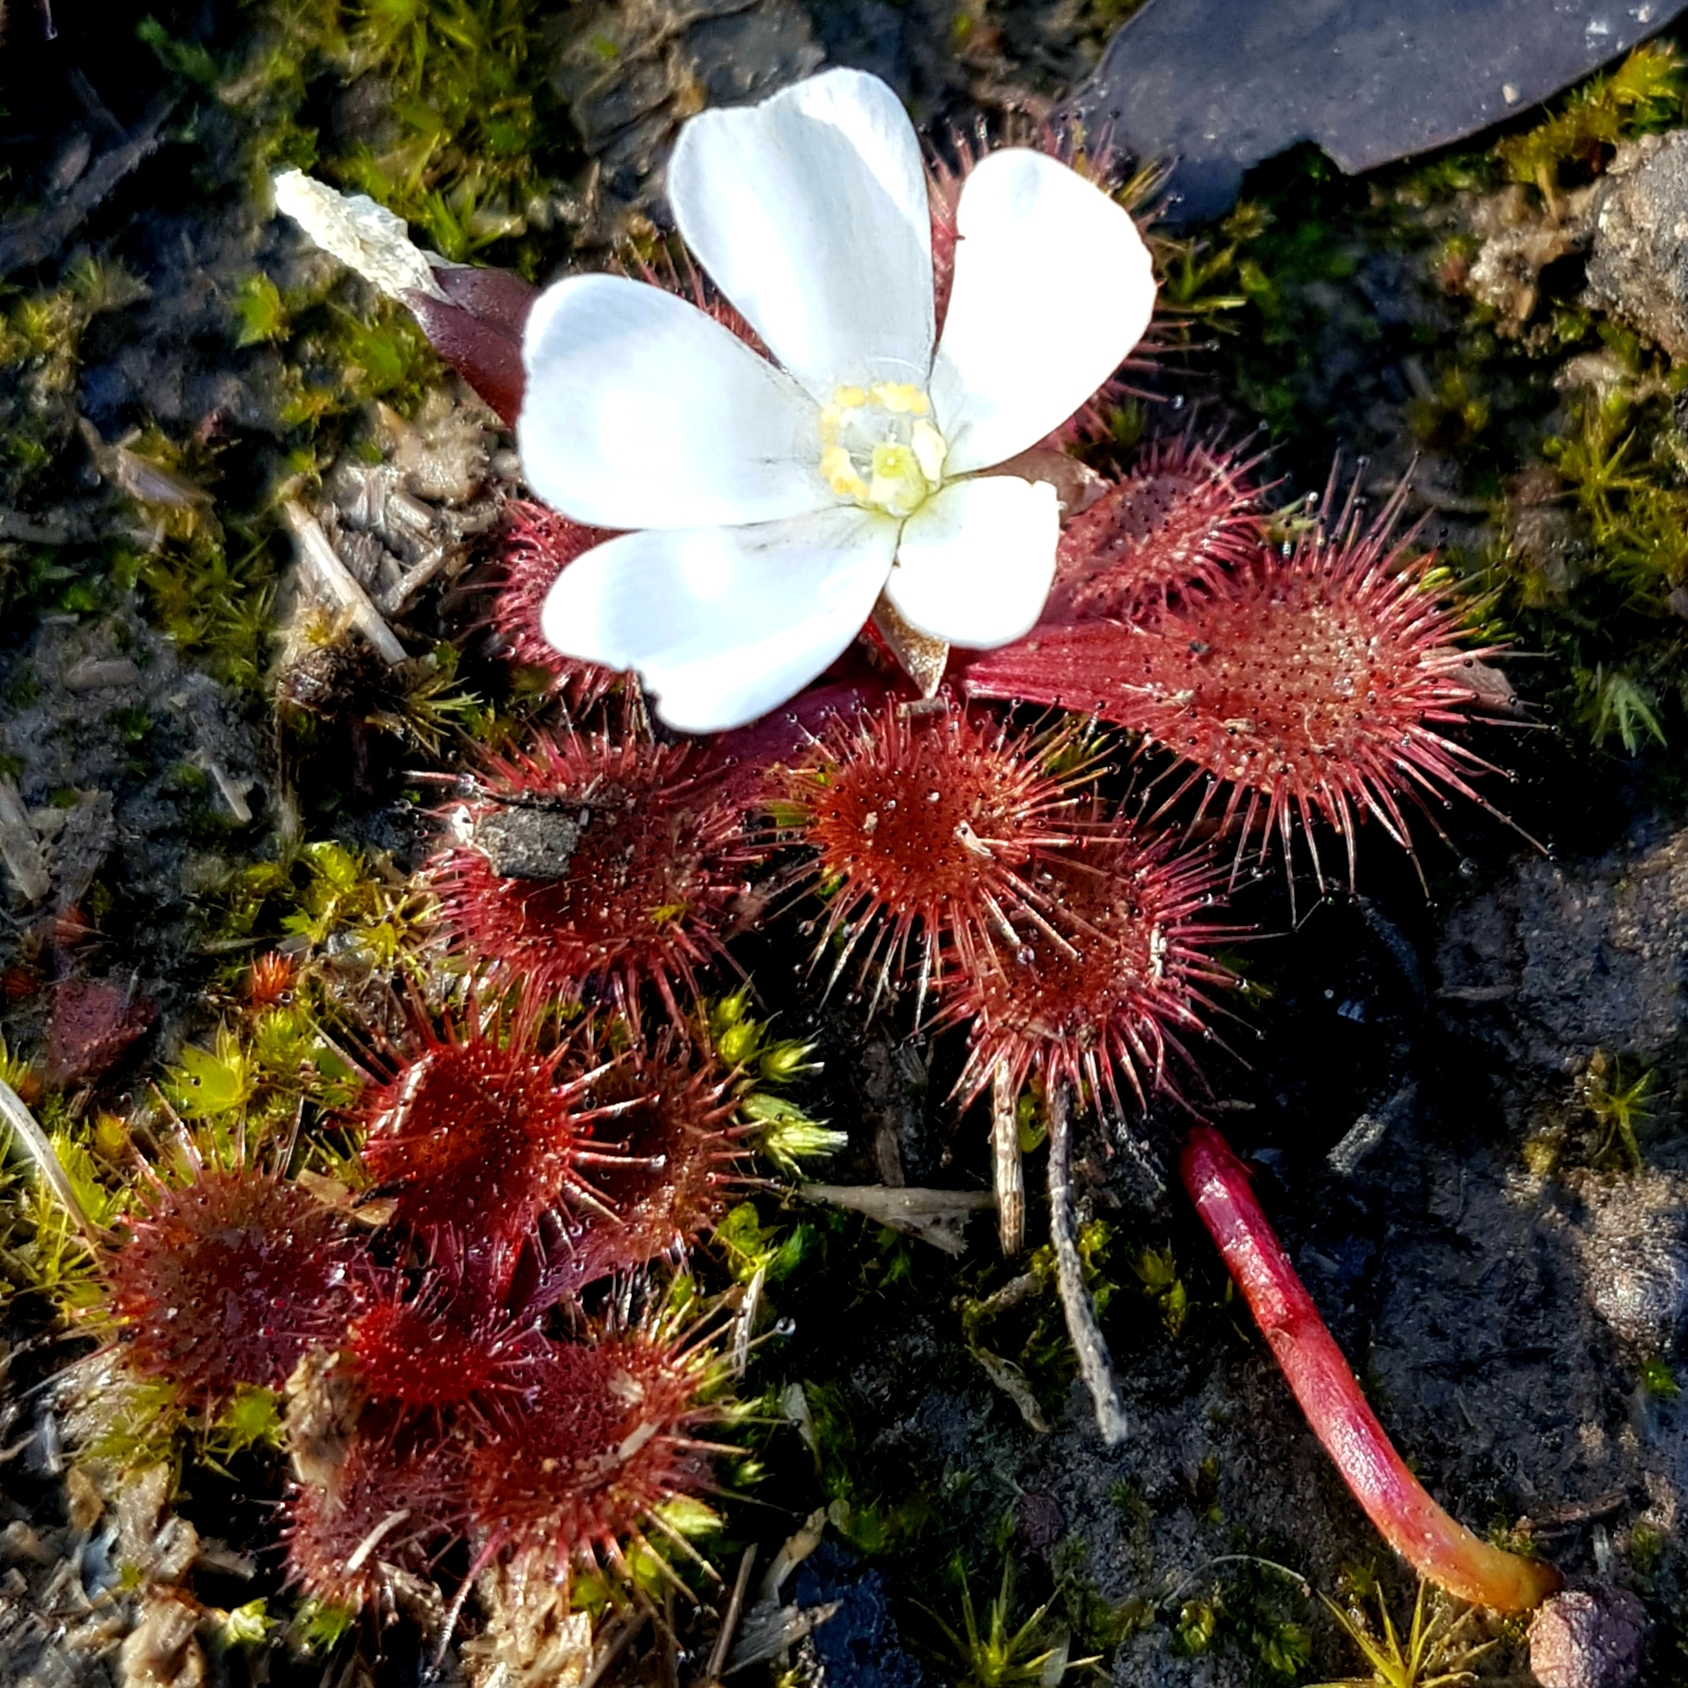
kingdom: Plantae
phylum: Tracheophyta
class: Magnoliopsida
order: Caryophyllales
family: Droseraceae
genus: Drosera
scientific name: Drosera aberrans
